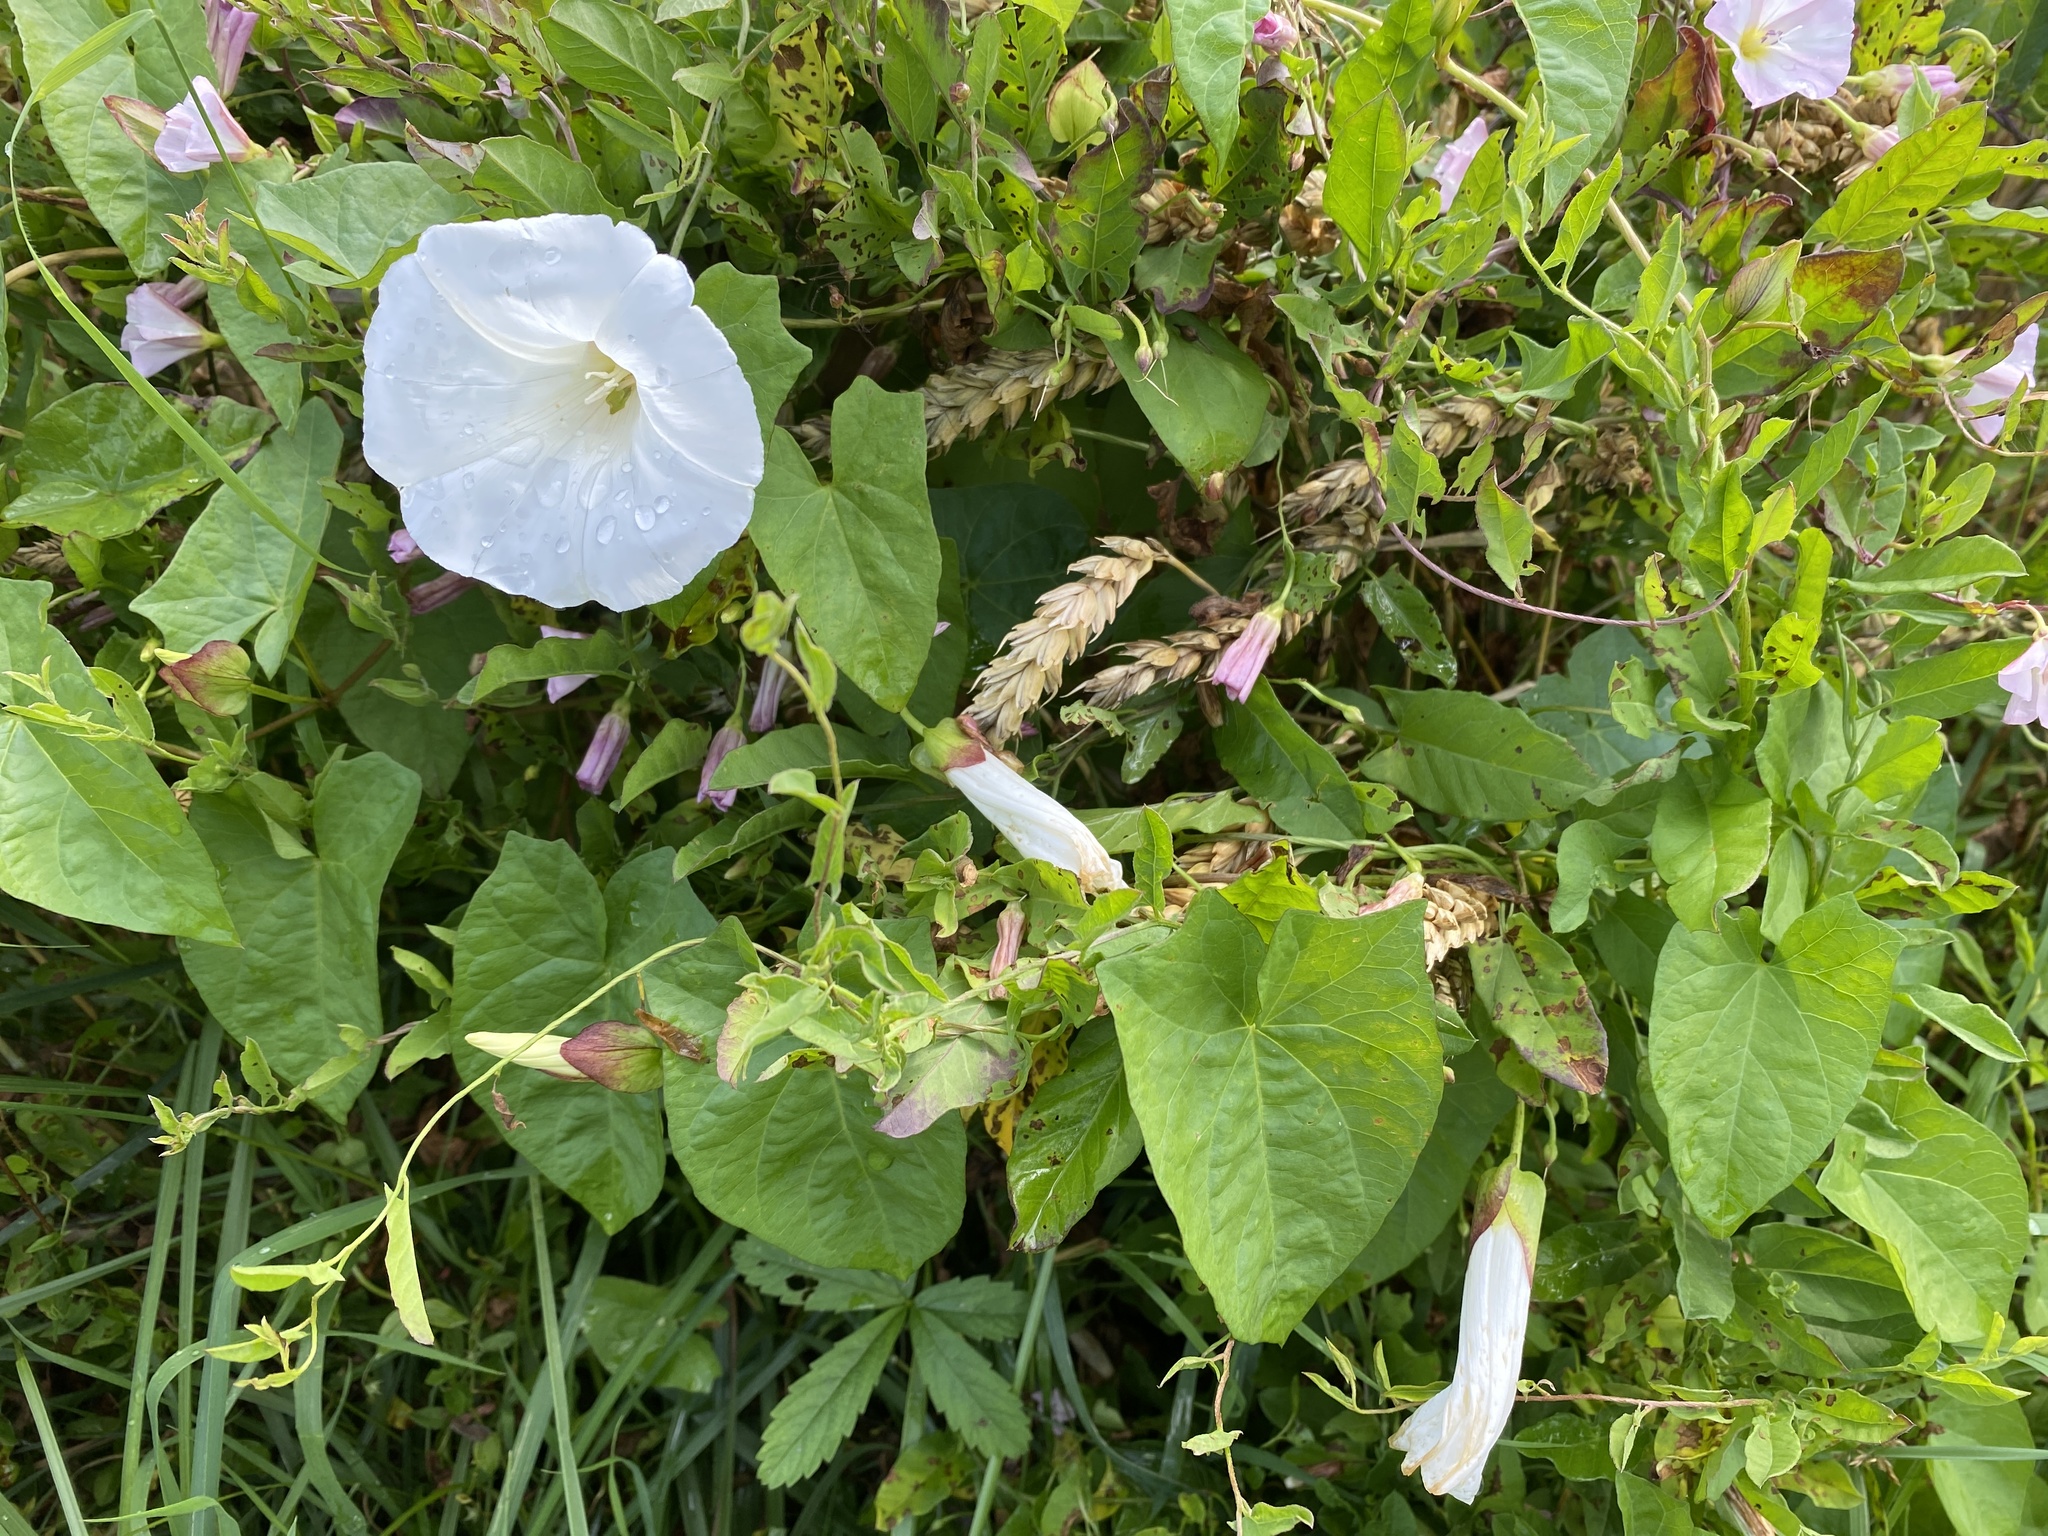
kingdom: Plantae
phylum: Tracheophyta
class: Magnoliopsida
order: Solanales
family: Convolvulaceae
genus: Calystegia
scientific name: Calystegia sepium
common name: Hedge bindweed
